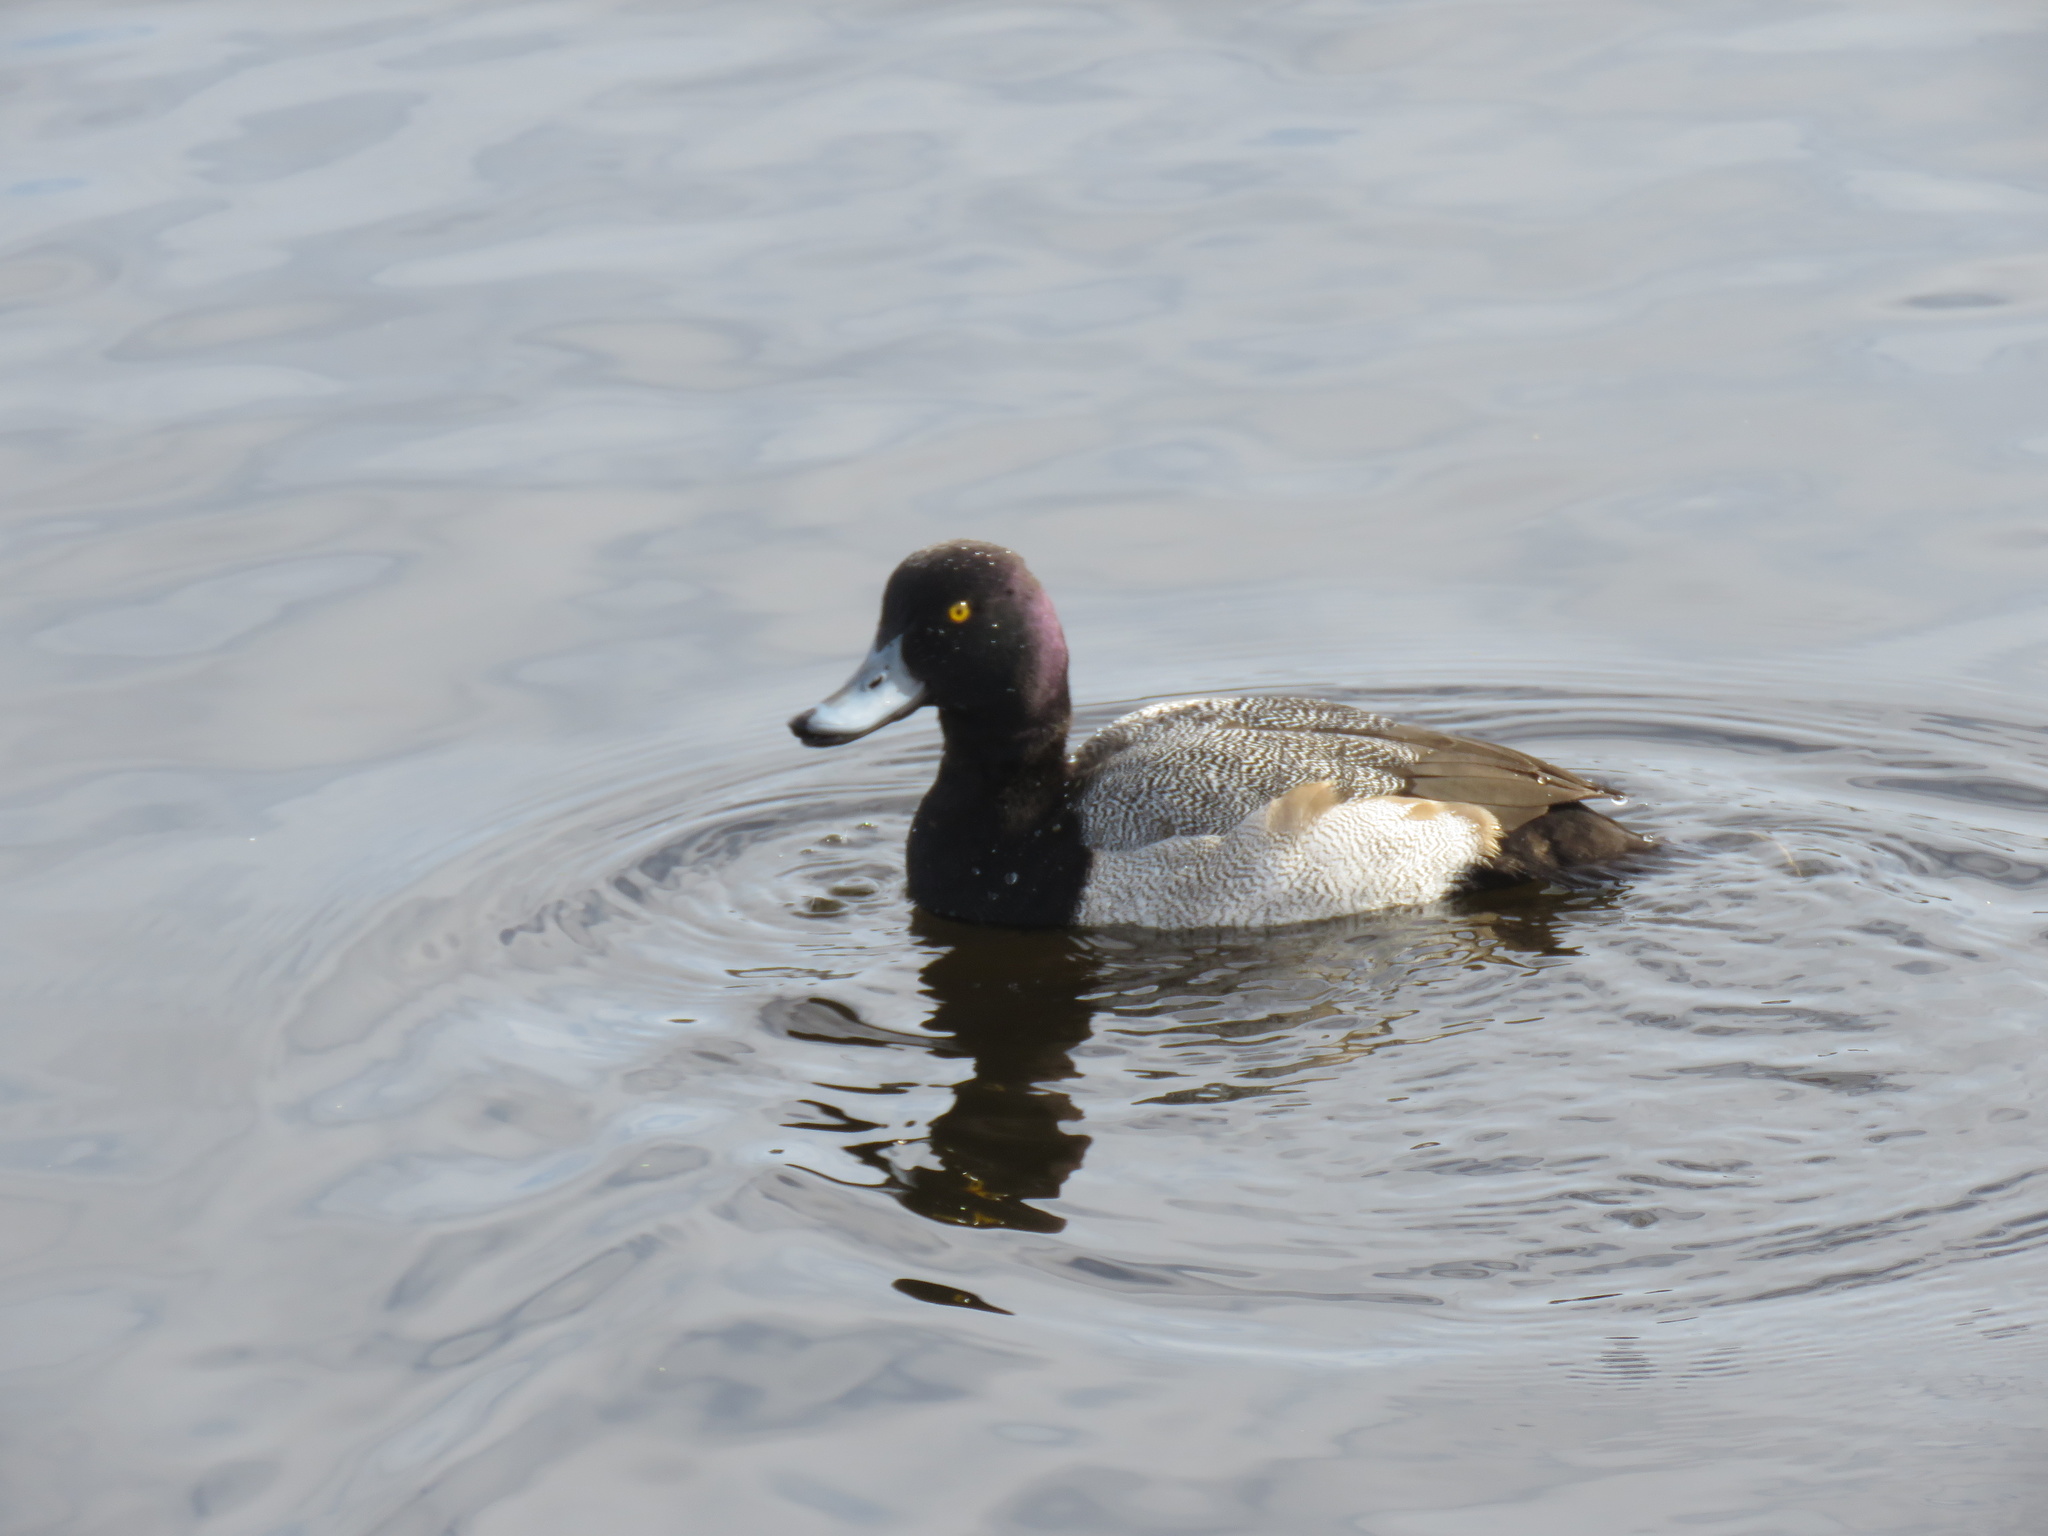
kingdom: Animalia
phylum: Chordata
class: Aves
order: Anseriformes
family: Anatidae
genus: Aythya
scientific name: Aythya affinis
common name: Lesser scaup
